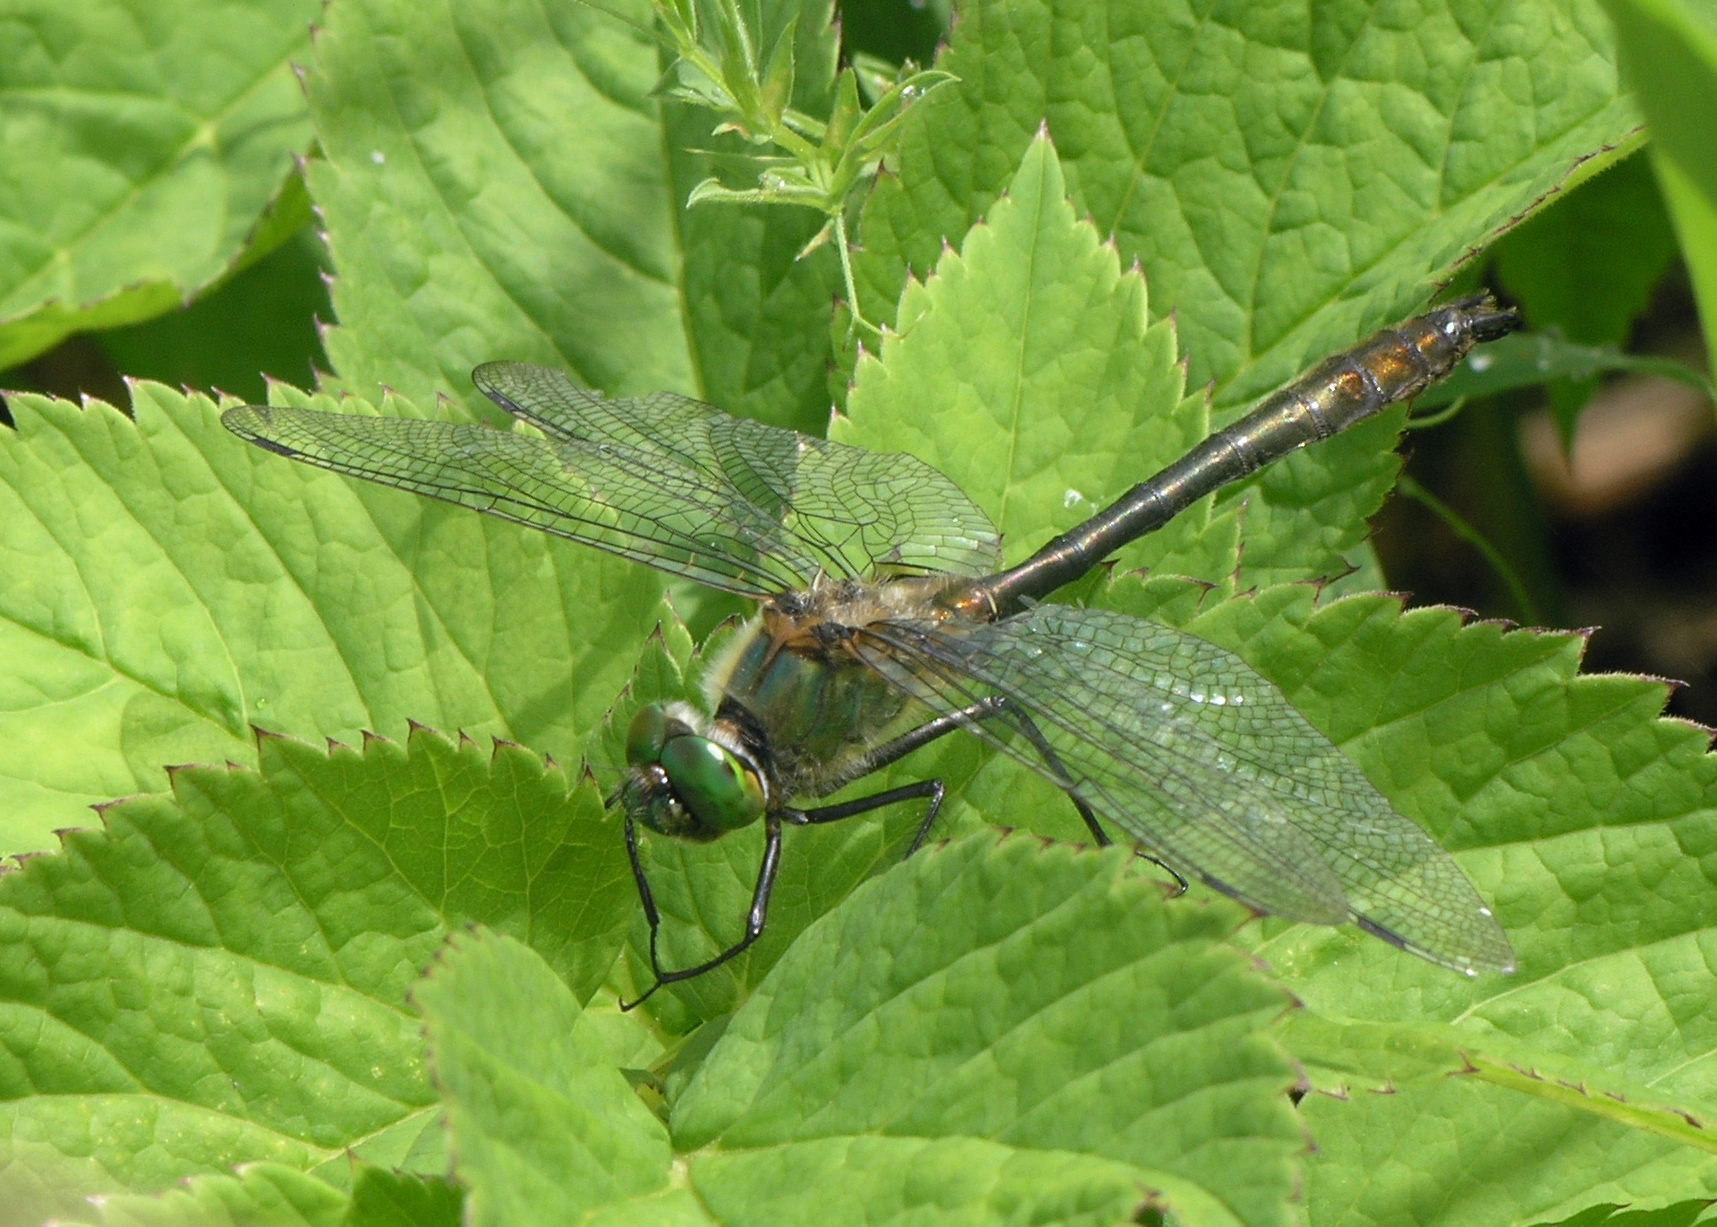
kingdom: Animalia
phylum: Arthropoda
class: Insecta
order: Odonata
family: Corduliidae
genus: Cordulia
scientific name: Cordulia aenea
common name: Downy emerald
